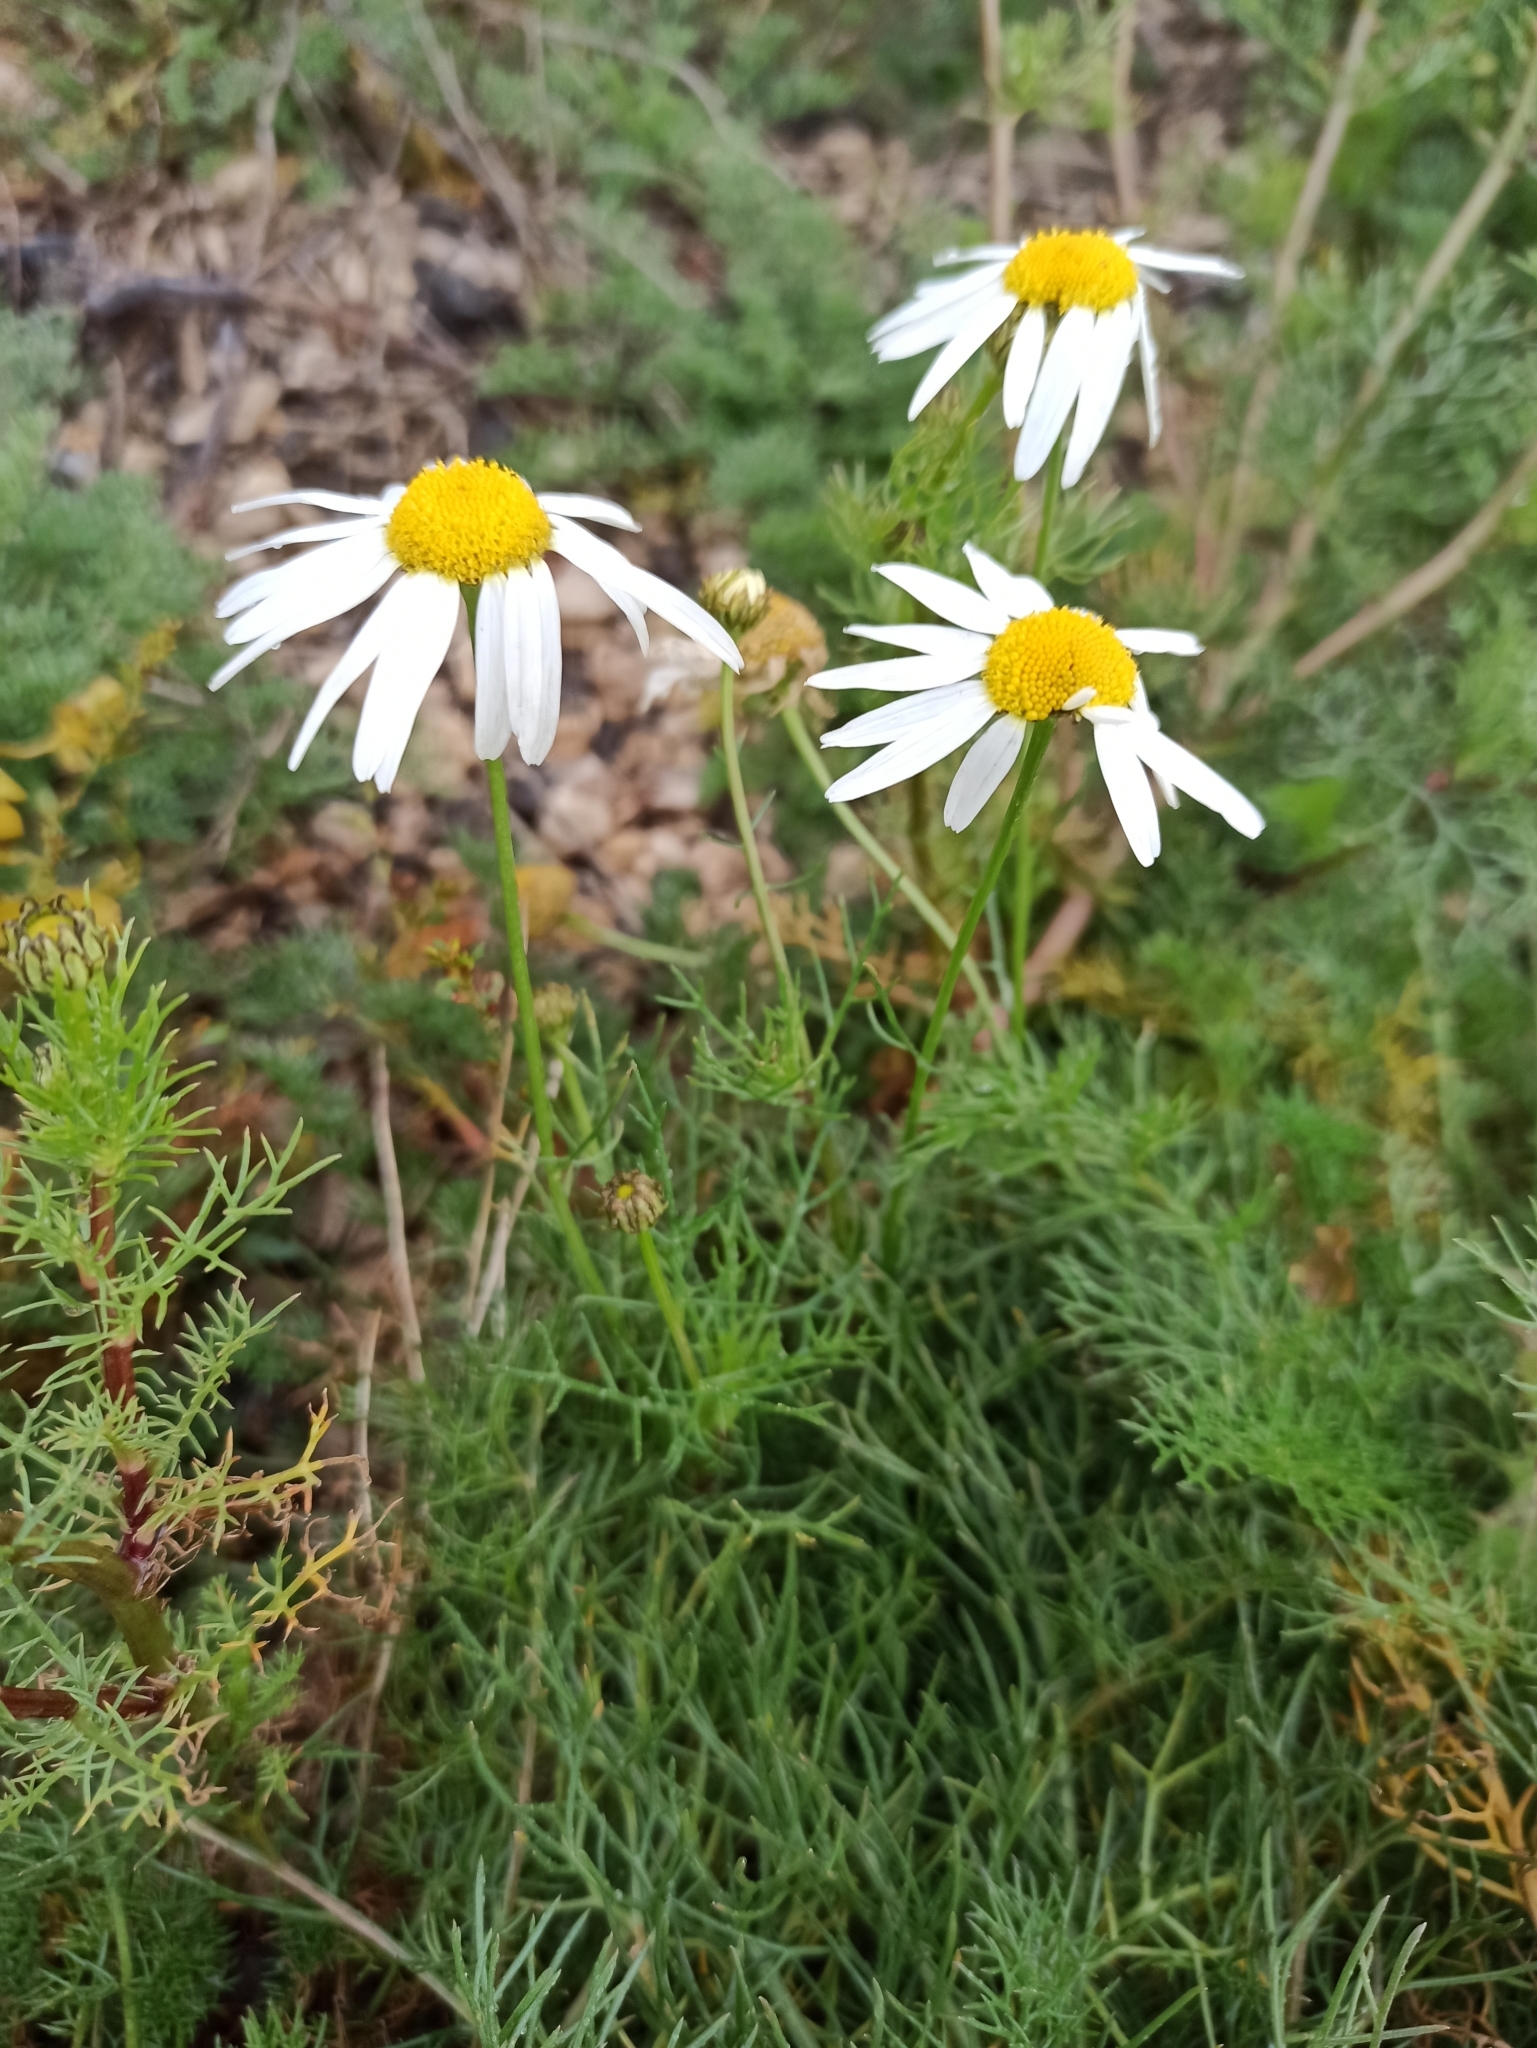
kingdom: Plantae
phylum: Tracheophyta
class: Magnoliopsida
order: Asterales
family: Asteraceae
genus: Tripleurospermum
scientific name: Tripleurospermum inodorum
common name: Scentless mayweed
